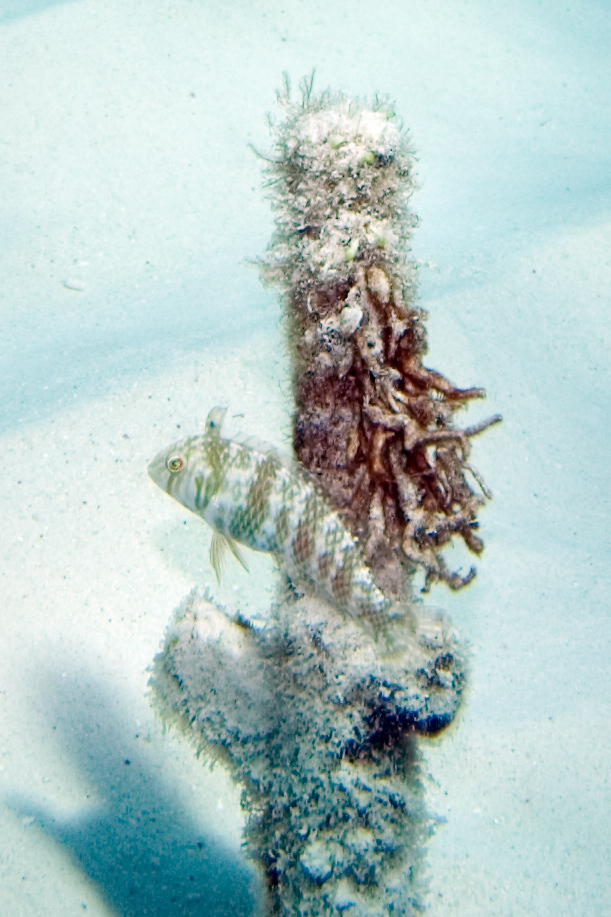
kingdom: Animalia
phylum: Chordata
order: Perciformes
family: Labridae
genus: Xyrichtys
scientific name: Xyrichtys splendens
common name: Green razorfish
